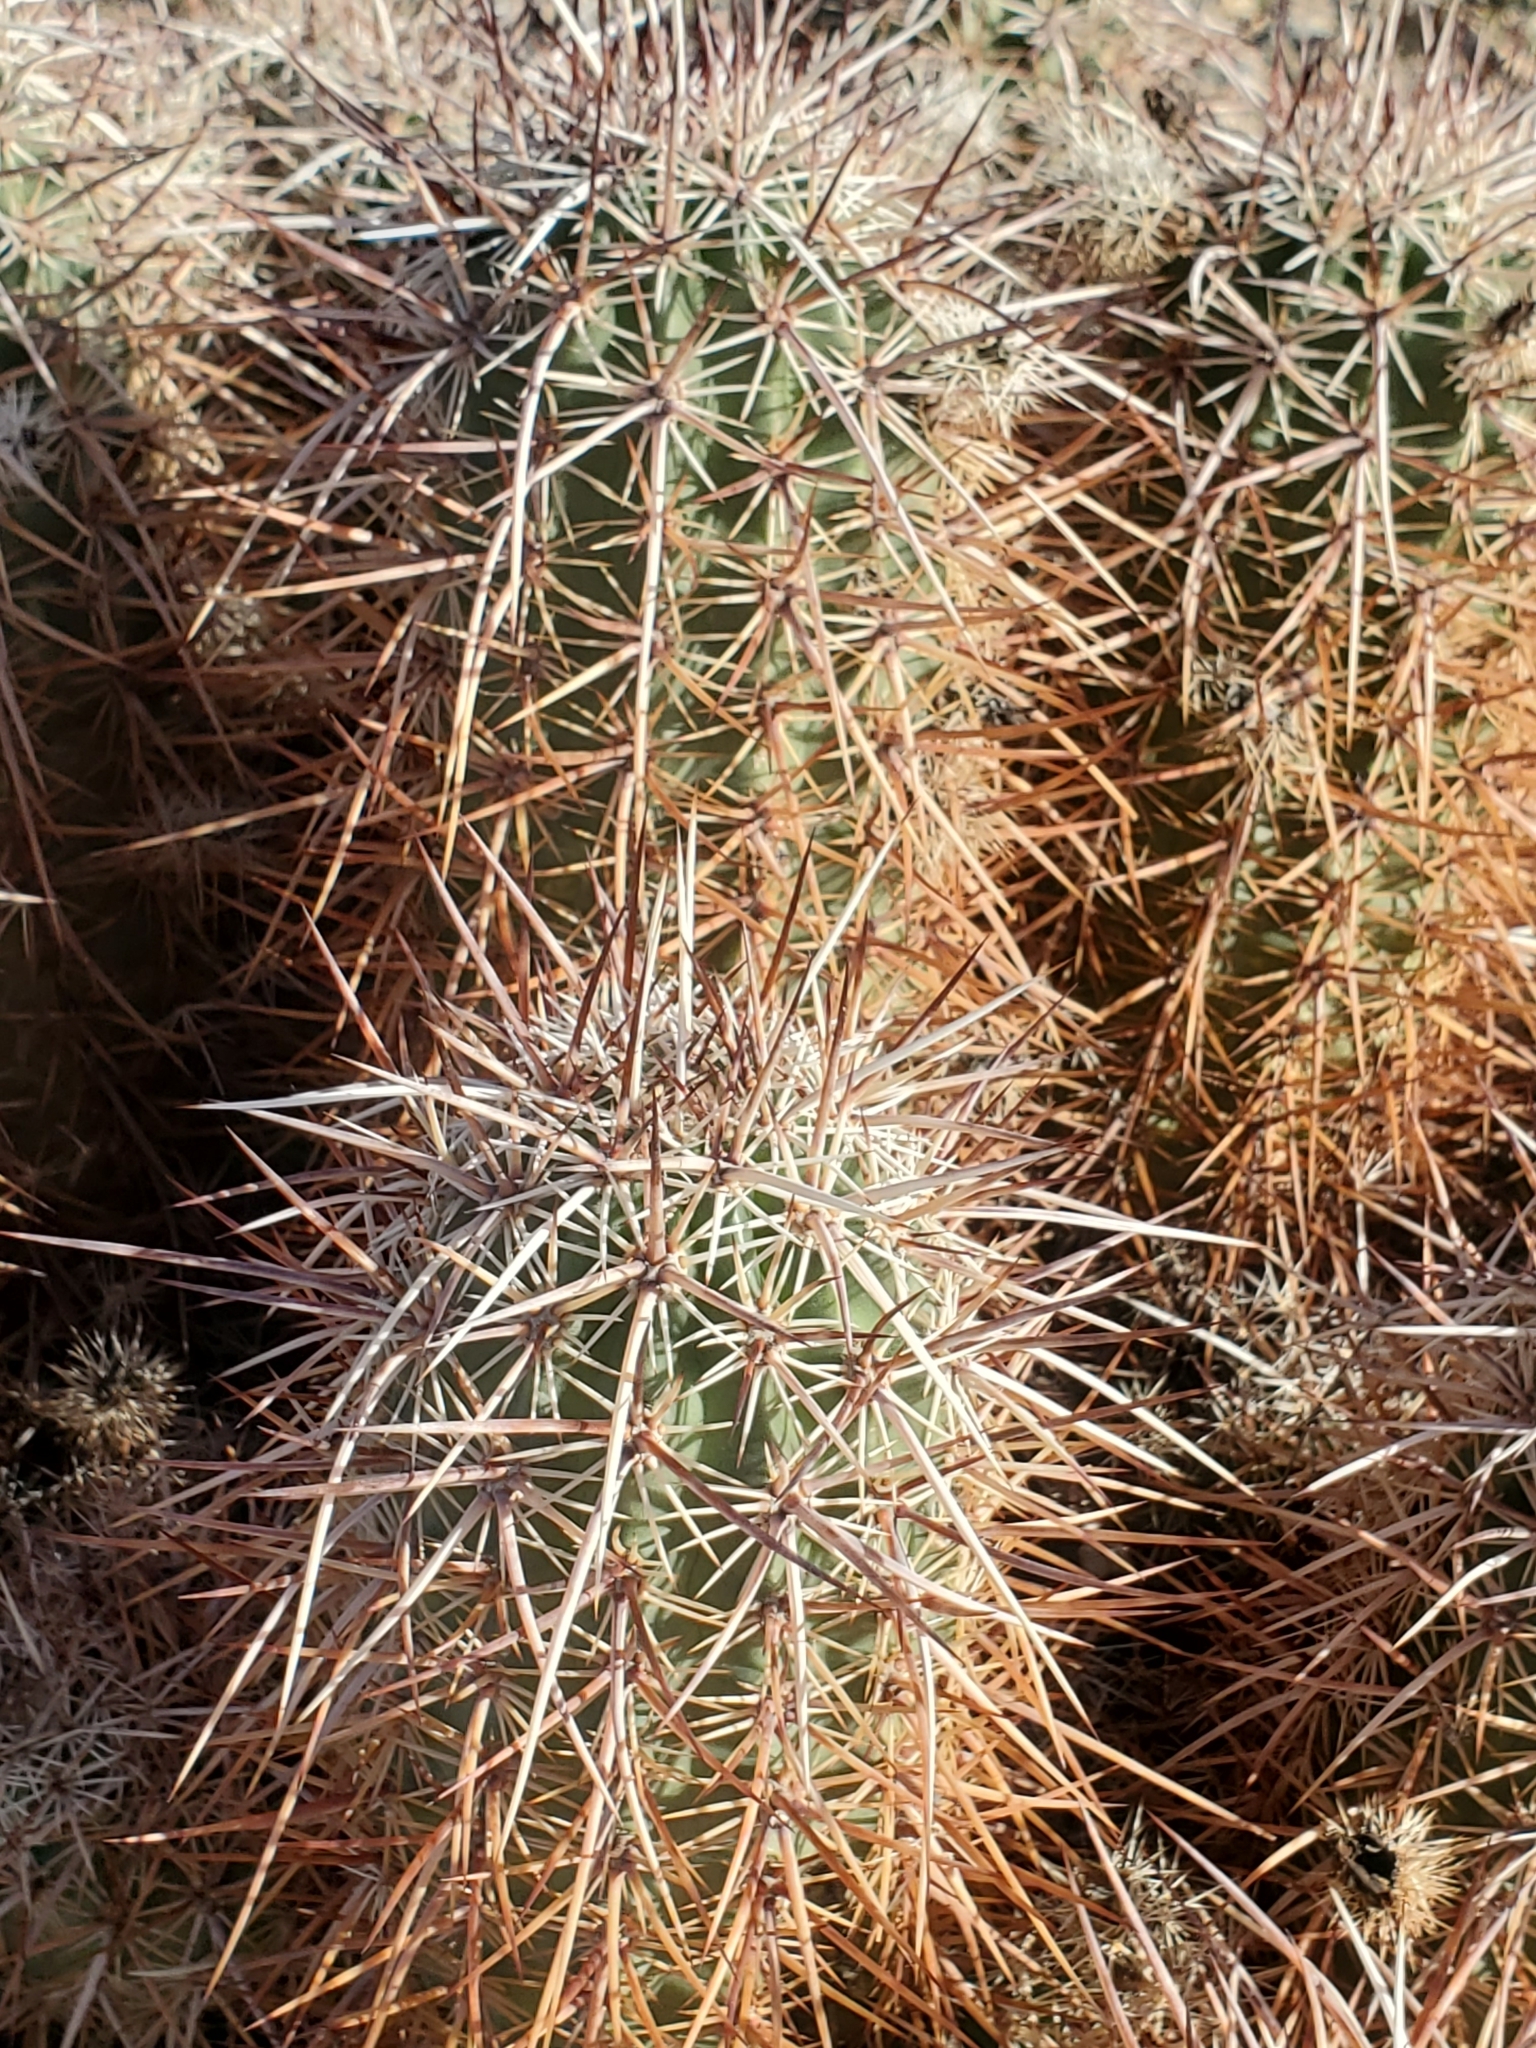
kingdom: Plantae
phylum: Tracheophyta
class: Magnoliopsida
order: Caryophyllales
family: Cactaceae
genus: Echinocereus
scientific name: Echinocereus engelmannii
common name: Engelmann's hedgehog cactus
